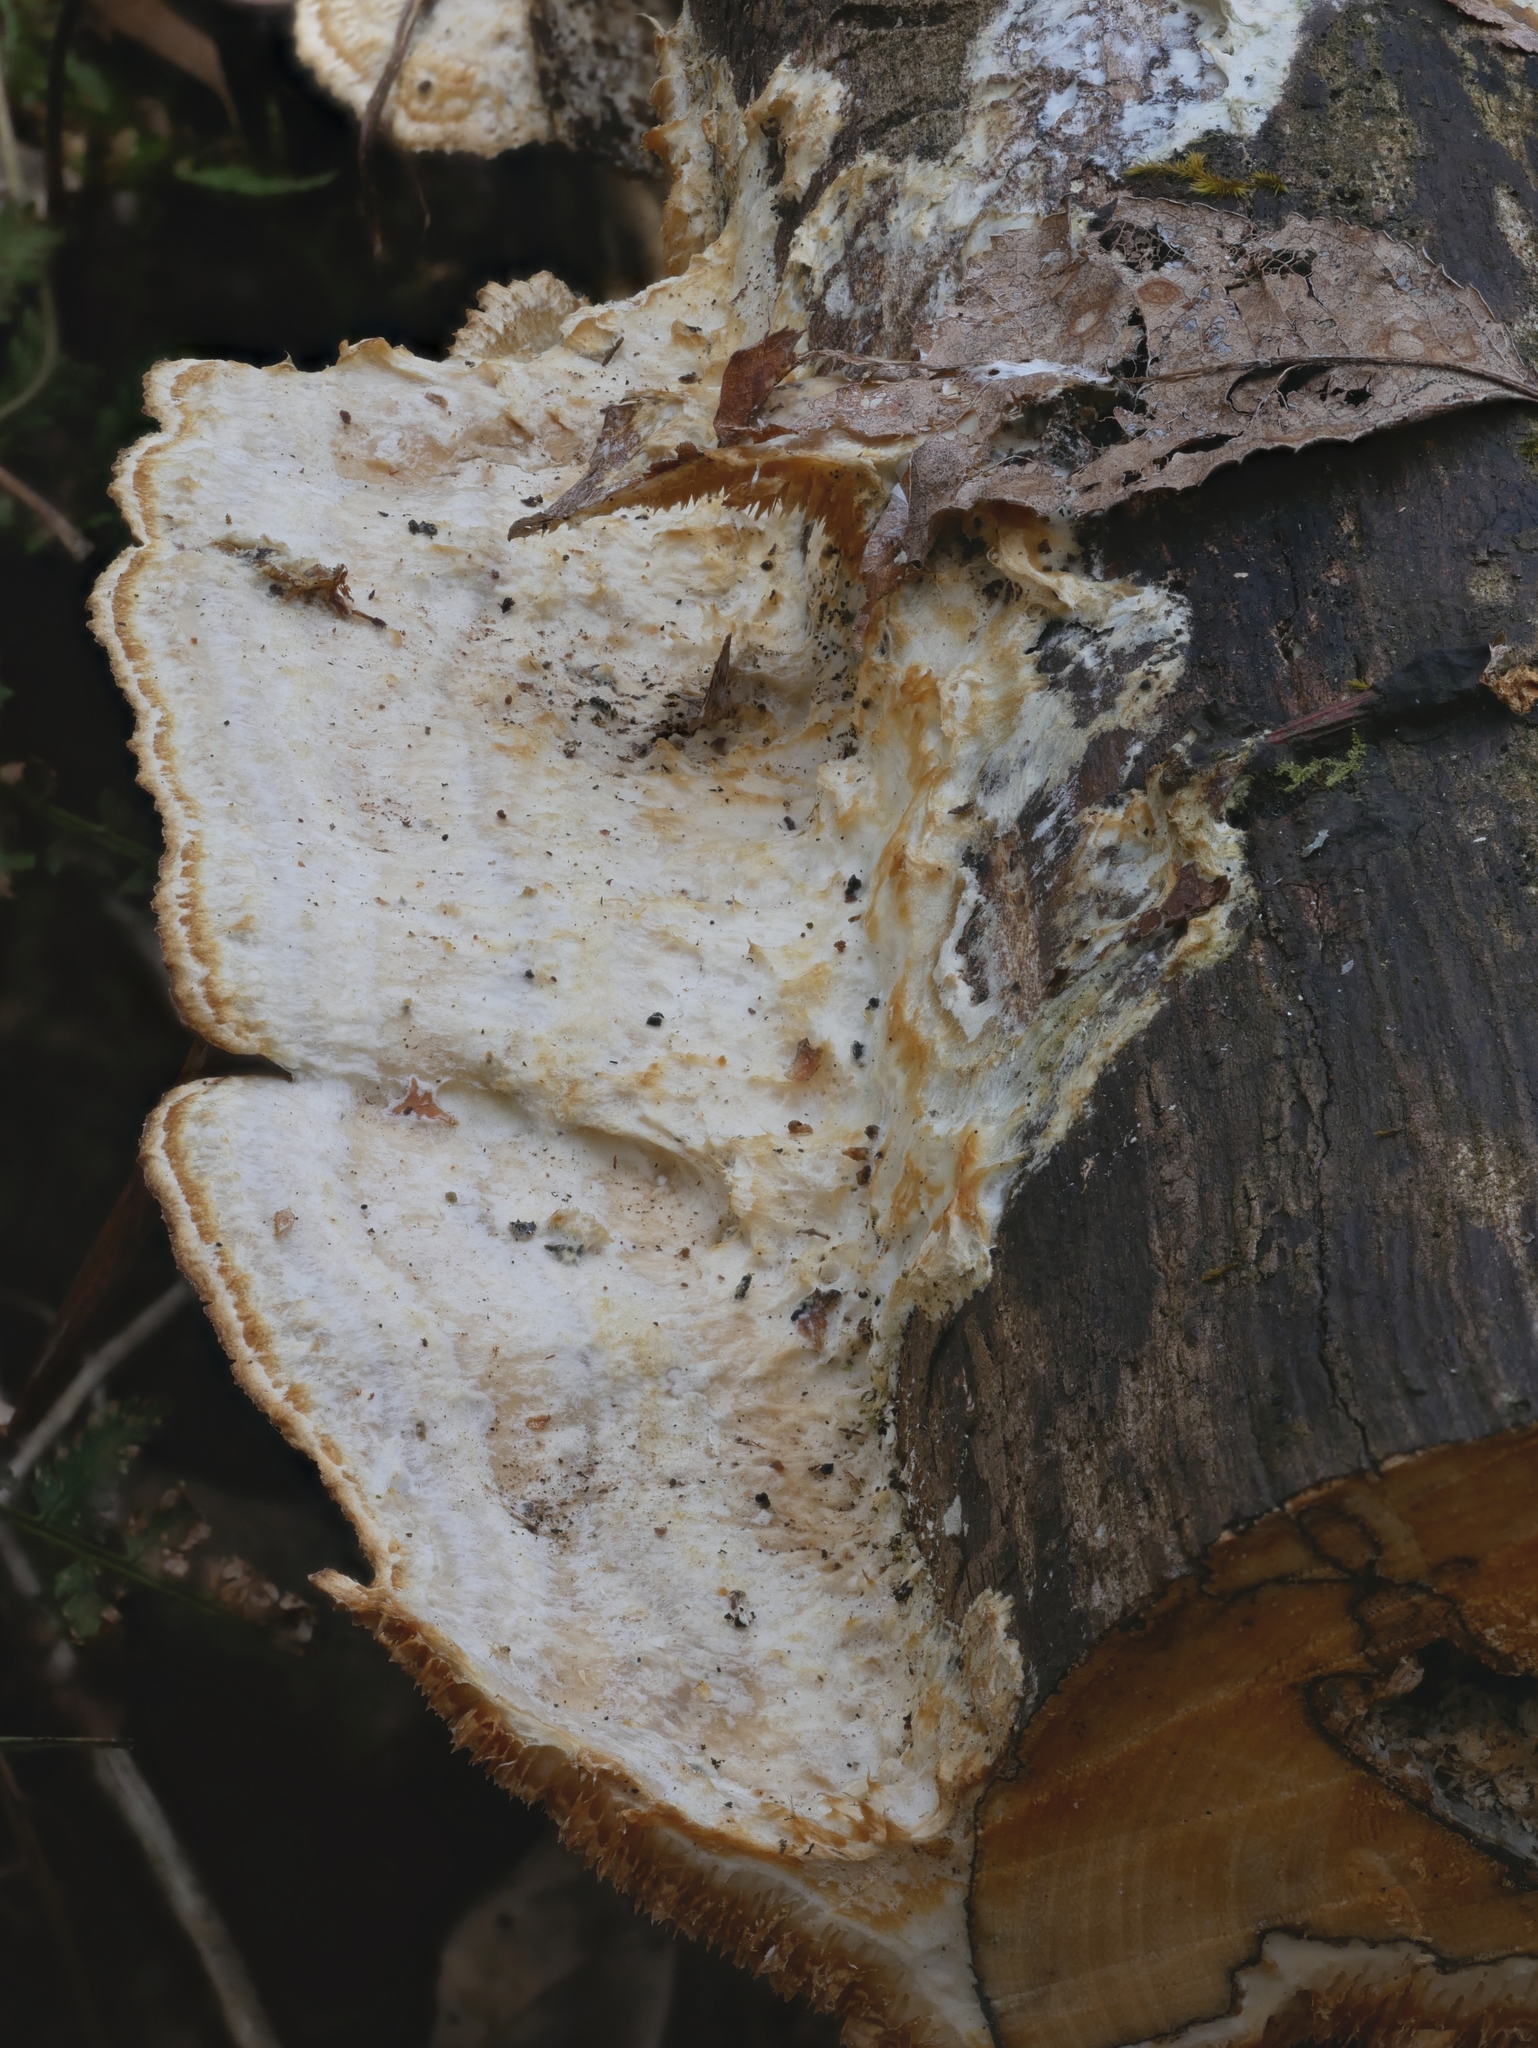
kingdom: Fungi
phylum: Basidiomycota
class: Agaricomycetes
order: Polyporales
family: Irpicaceae
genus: Trametopsis
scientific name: Trametopsis cervina
